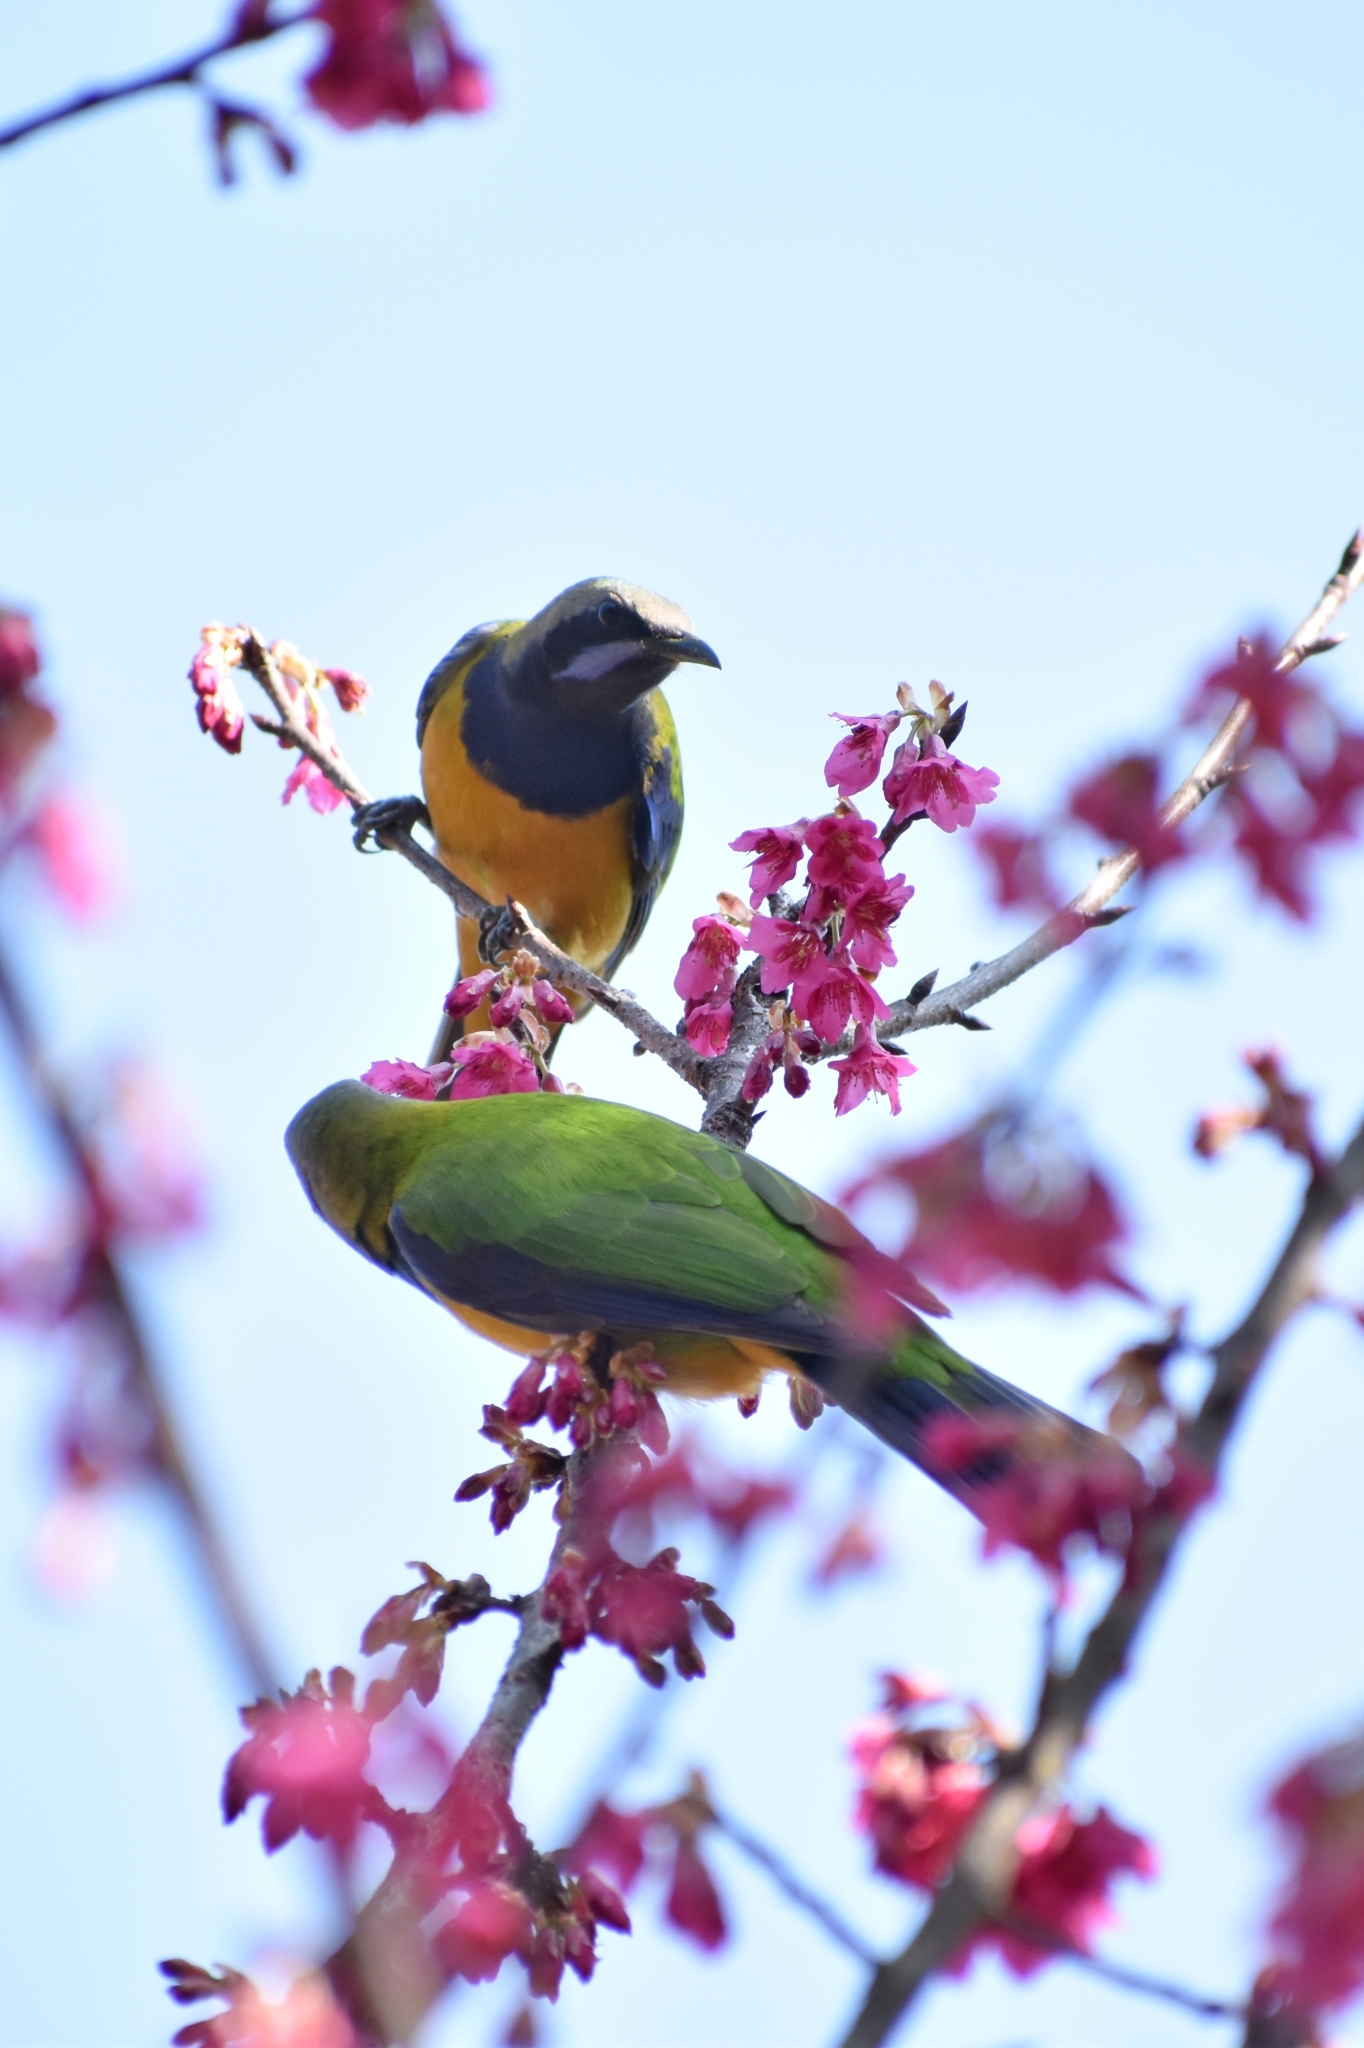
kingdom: Animalia
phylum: Chordata
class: Aves
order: Passeriformes
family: Chloropseidae
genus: Chloropsis
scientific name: Chloropsis hardwickii
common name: Orange-bellied leafbird
